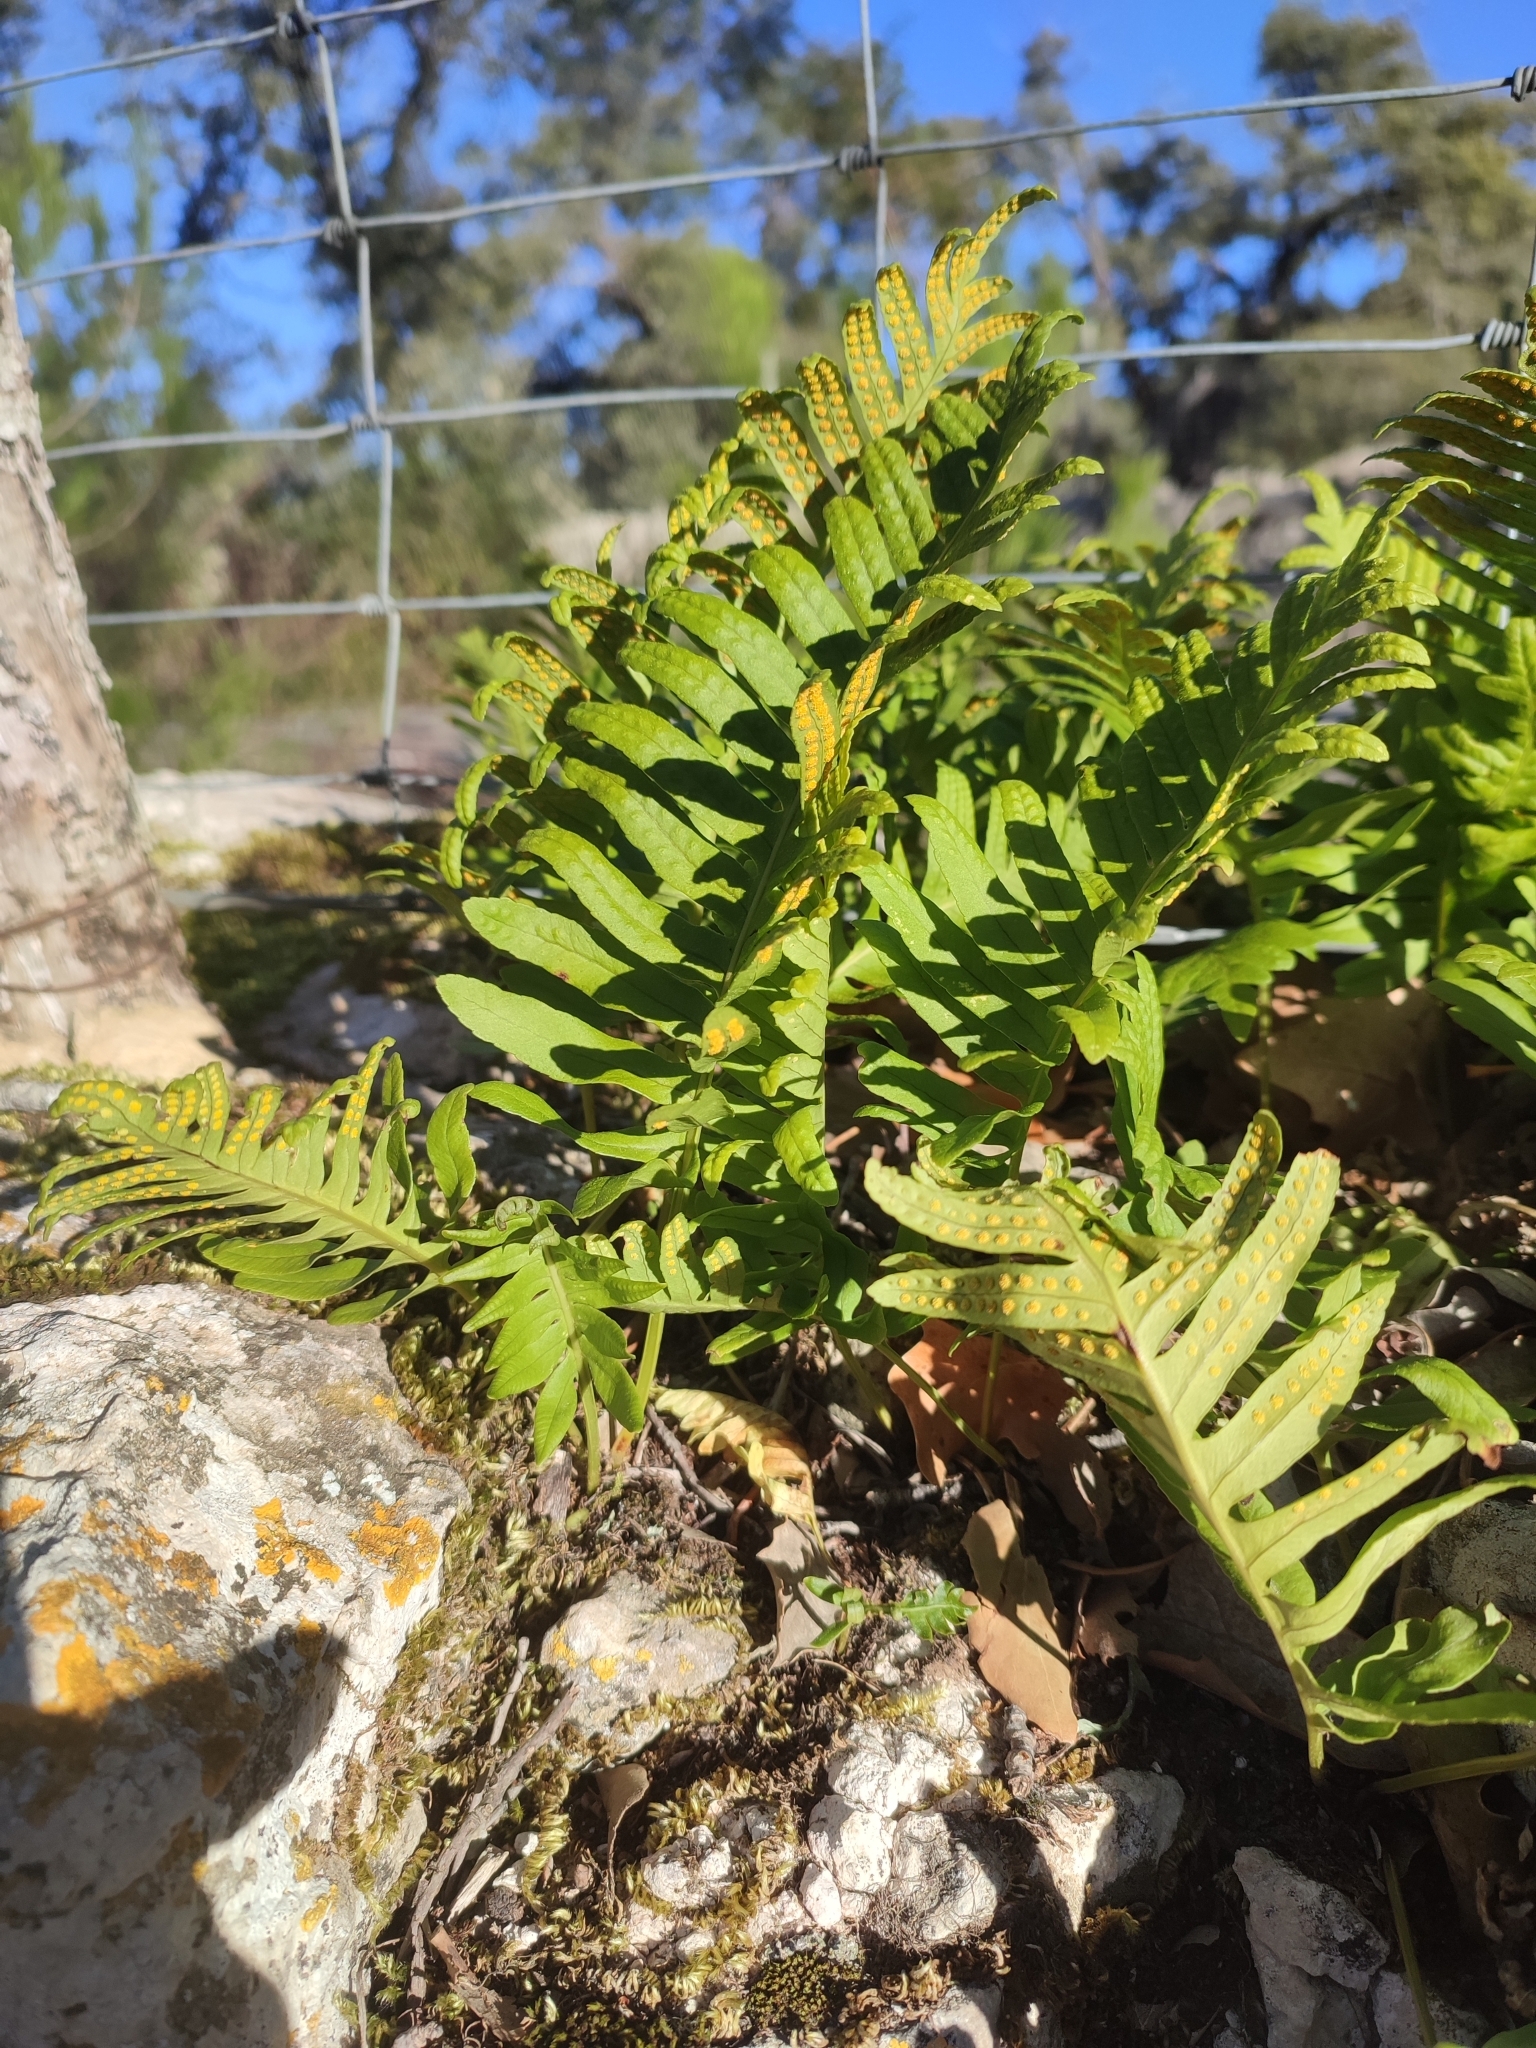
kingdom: Plantae
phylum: Tracheophyta
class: Polypodiopsida
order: Polypodiales
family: Polypodiaceae
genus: Polypodium
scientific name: Polypodium cambricum
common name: Southern polypody
